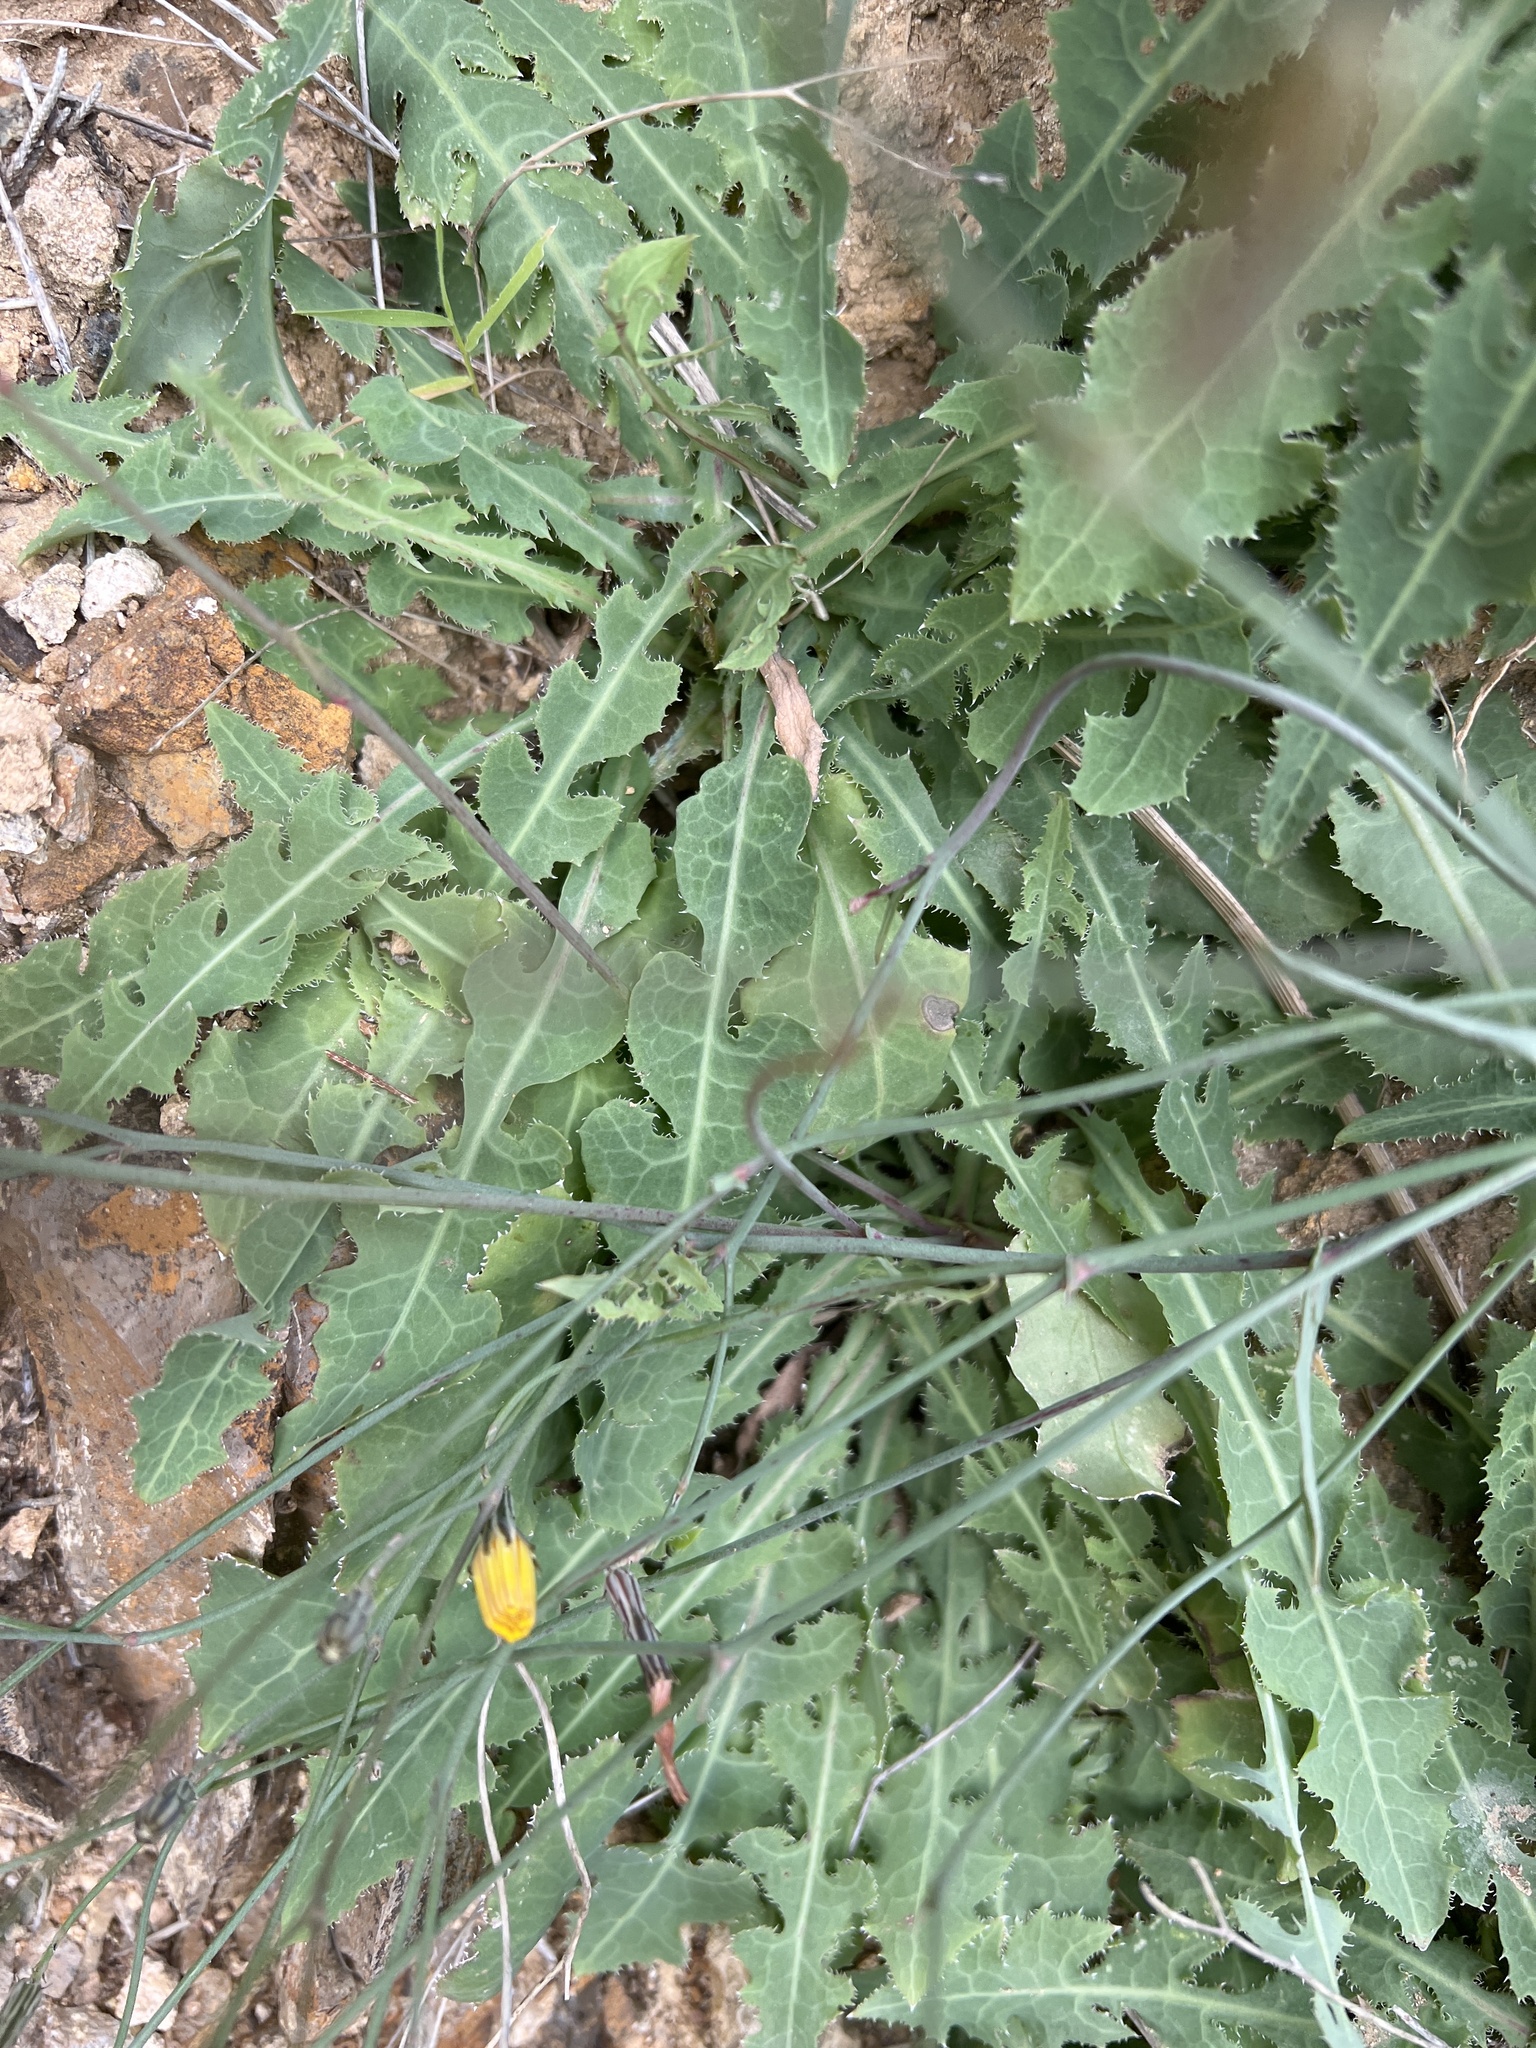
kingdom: Plantae
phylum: Tracheophyta
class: Magnoliopsida
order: Asterales
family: Asteraceae
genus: Reichardia
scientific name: Reichardia ligulata
